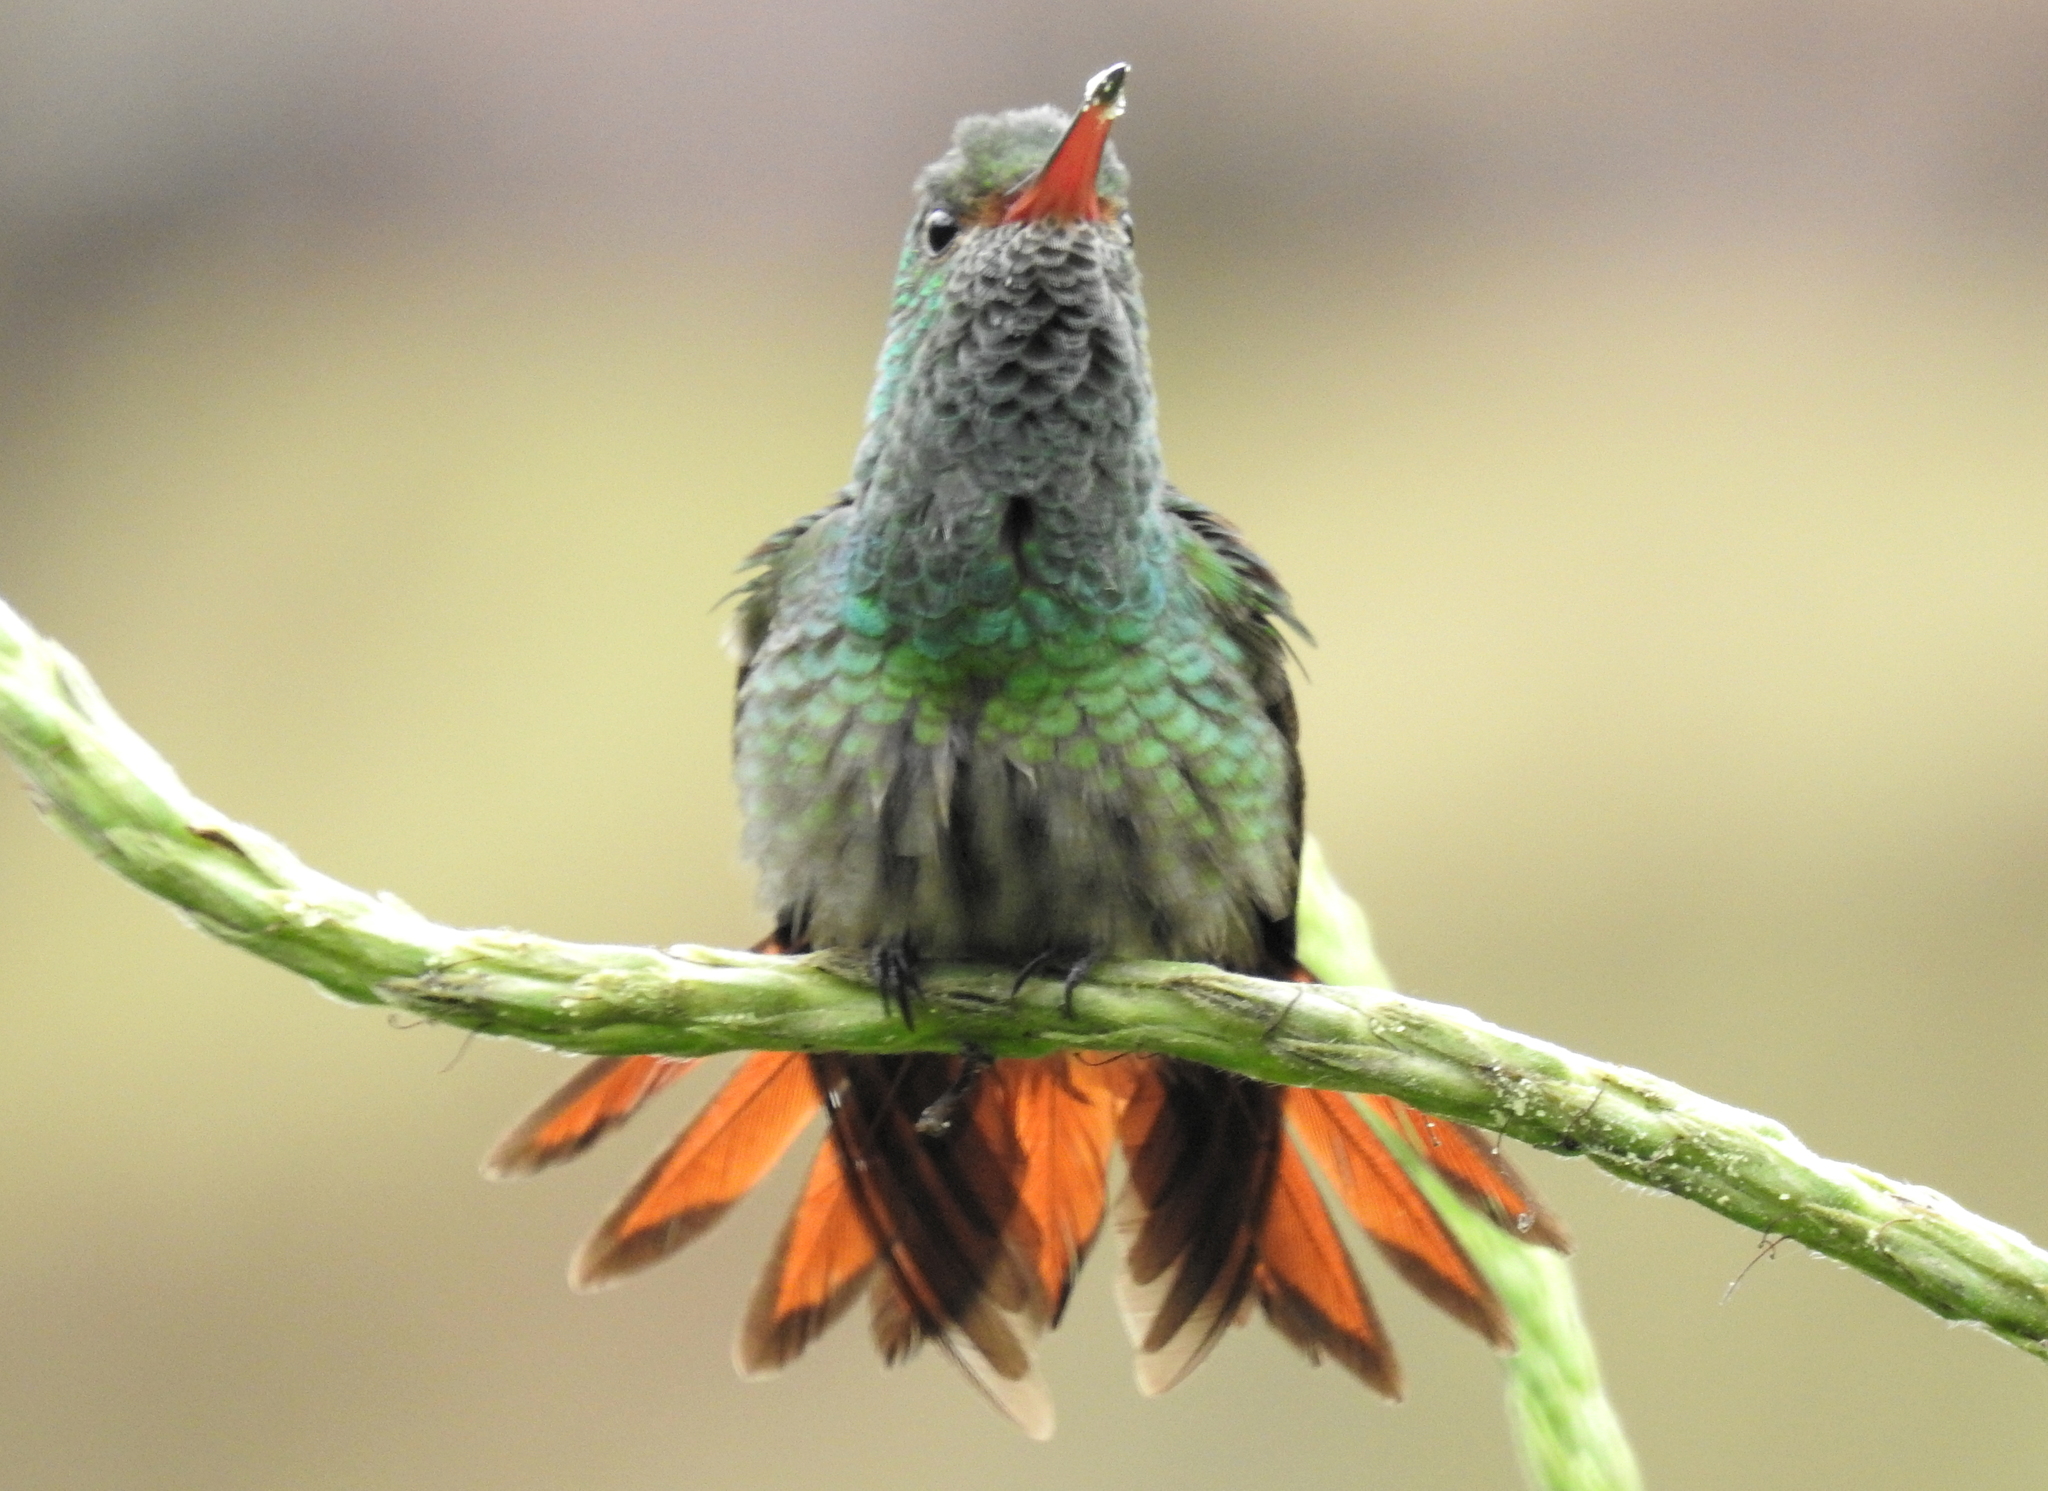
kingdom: Animalia
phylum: Chordata
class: Aves
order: Apodiformes
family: Trochilidae
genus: Amazilia
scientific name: Amazilia tzacatl
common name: Rufous-tailed hummingbird
